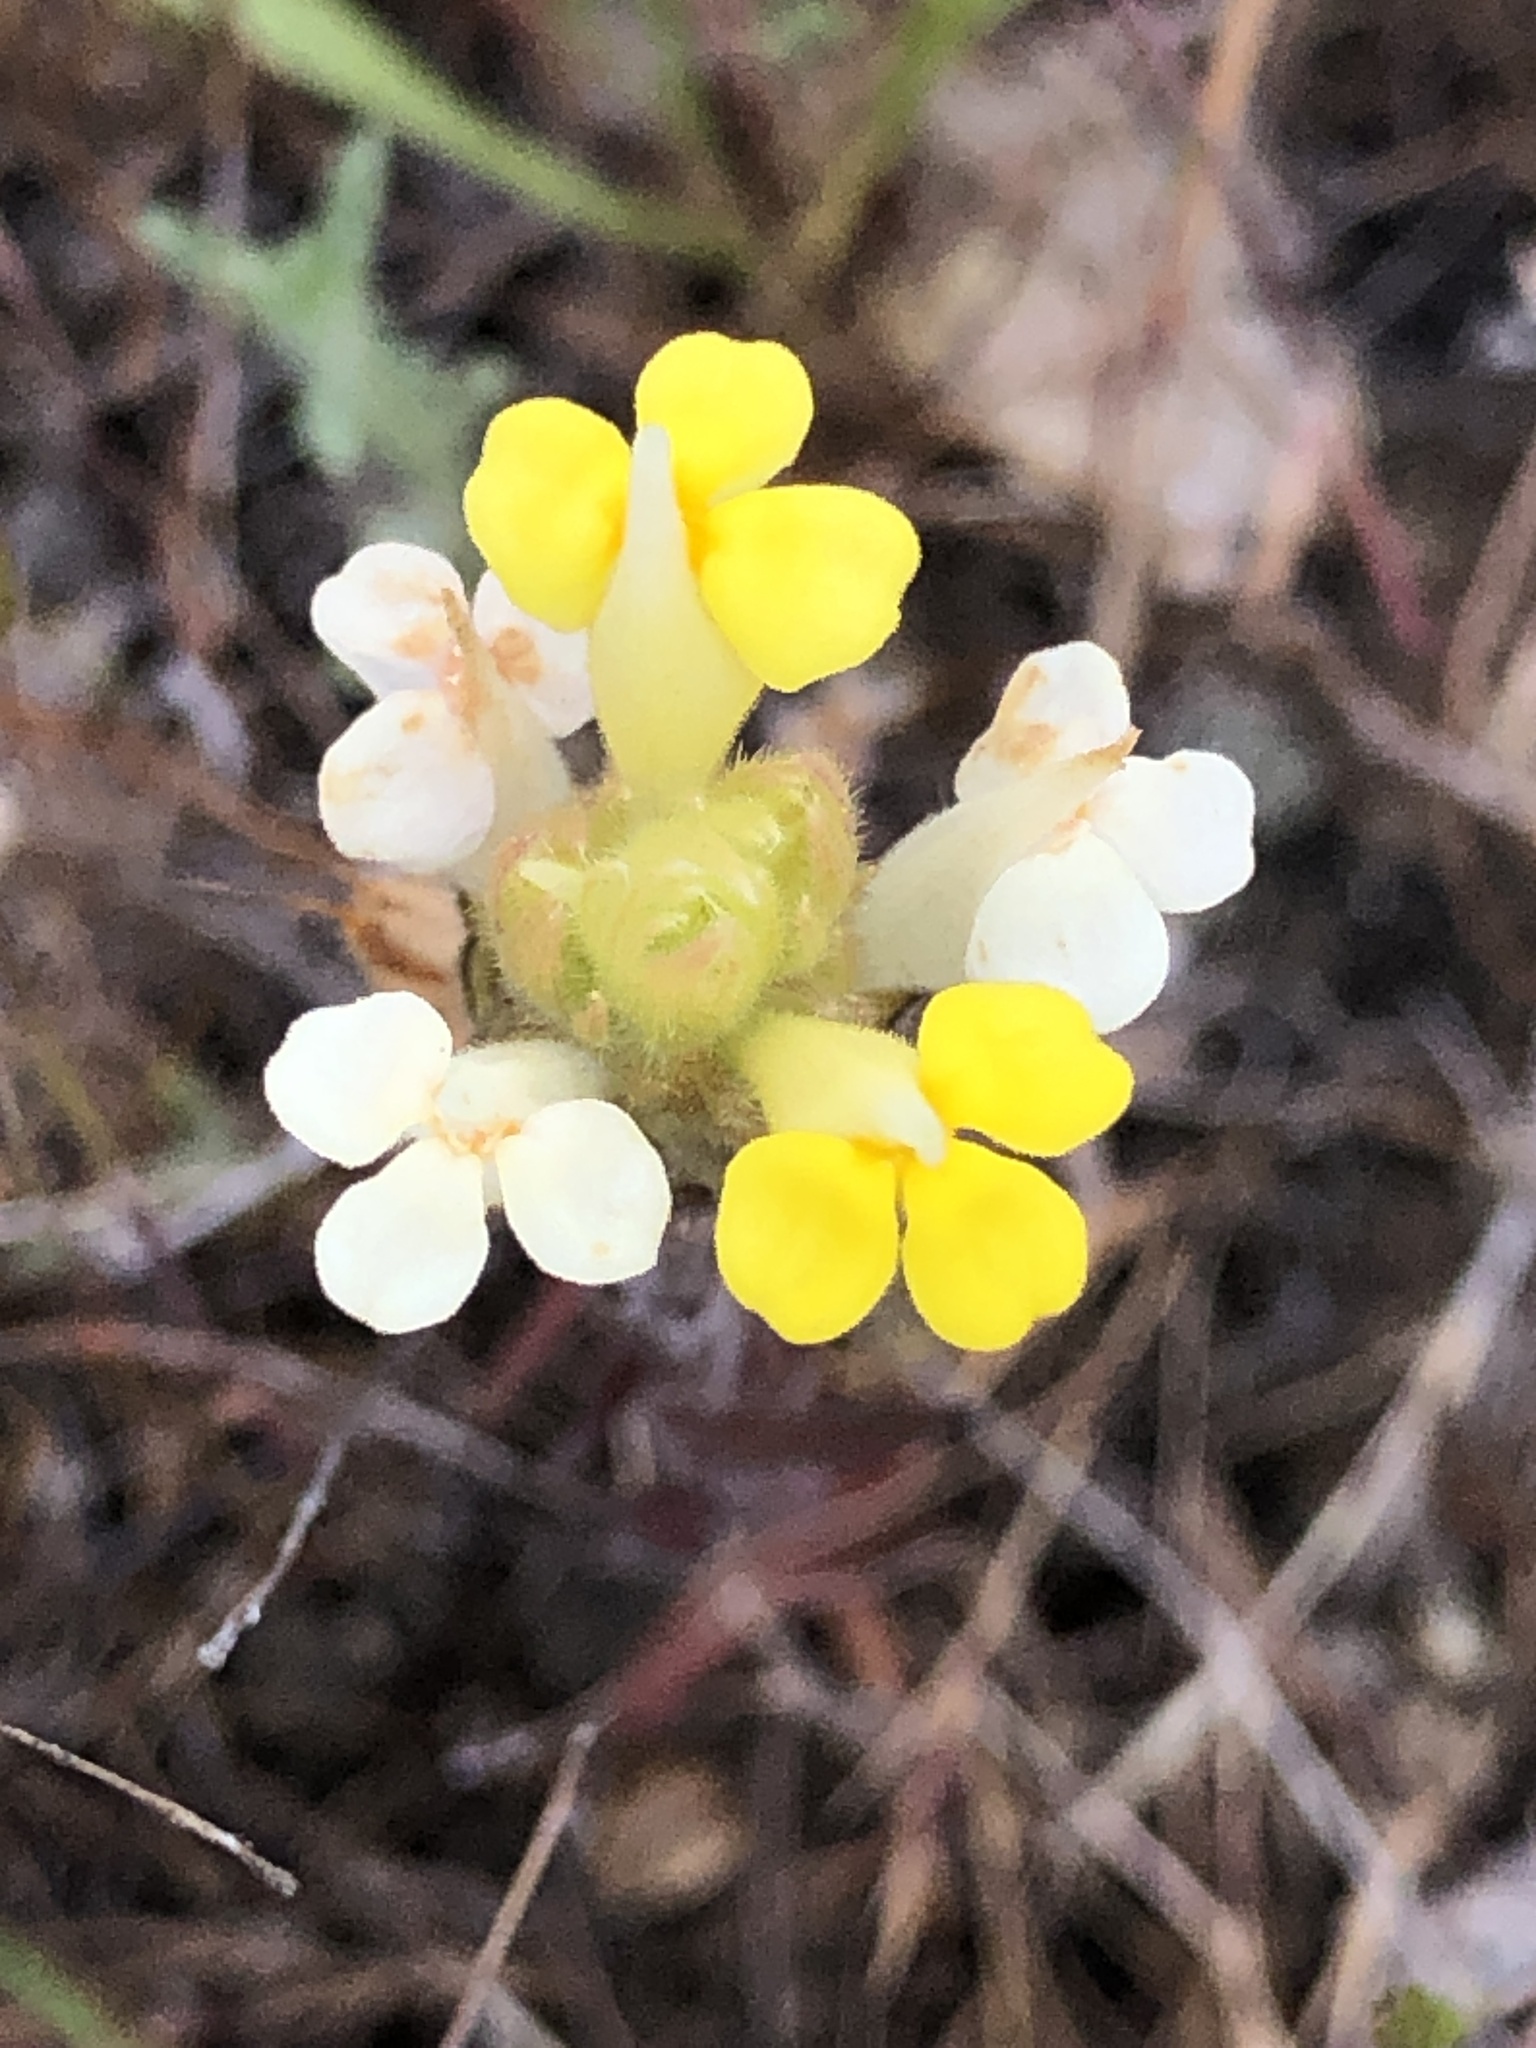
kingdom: Plantae
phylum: Tracheophyta
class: Magnoliopsida
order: Lamiales
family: Orobanchaceae
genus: Castilleja
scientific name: Castilleja rubicundula
